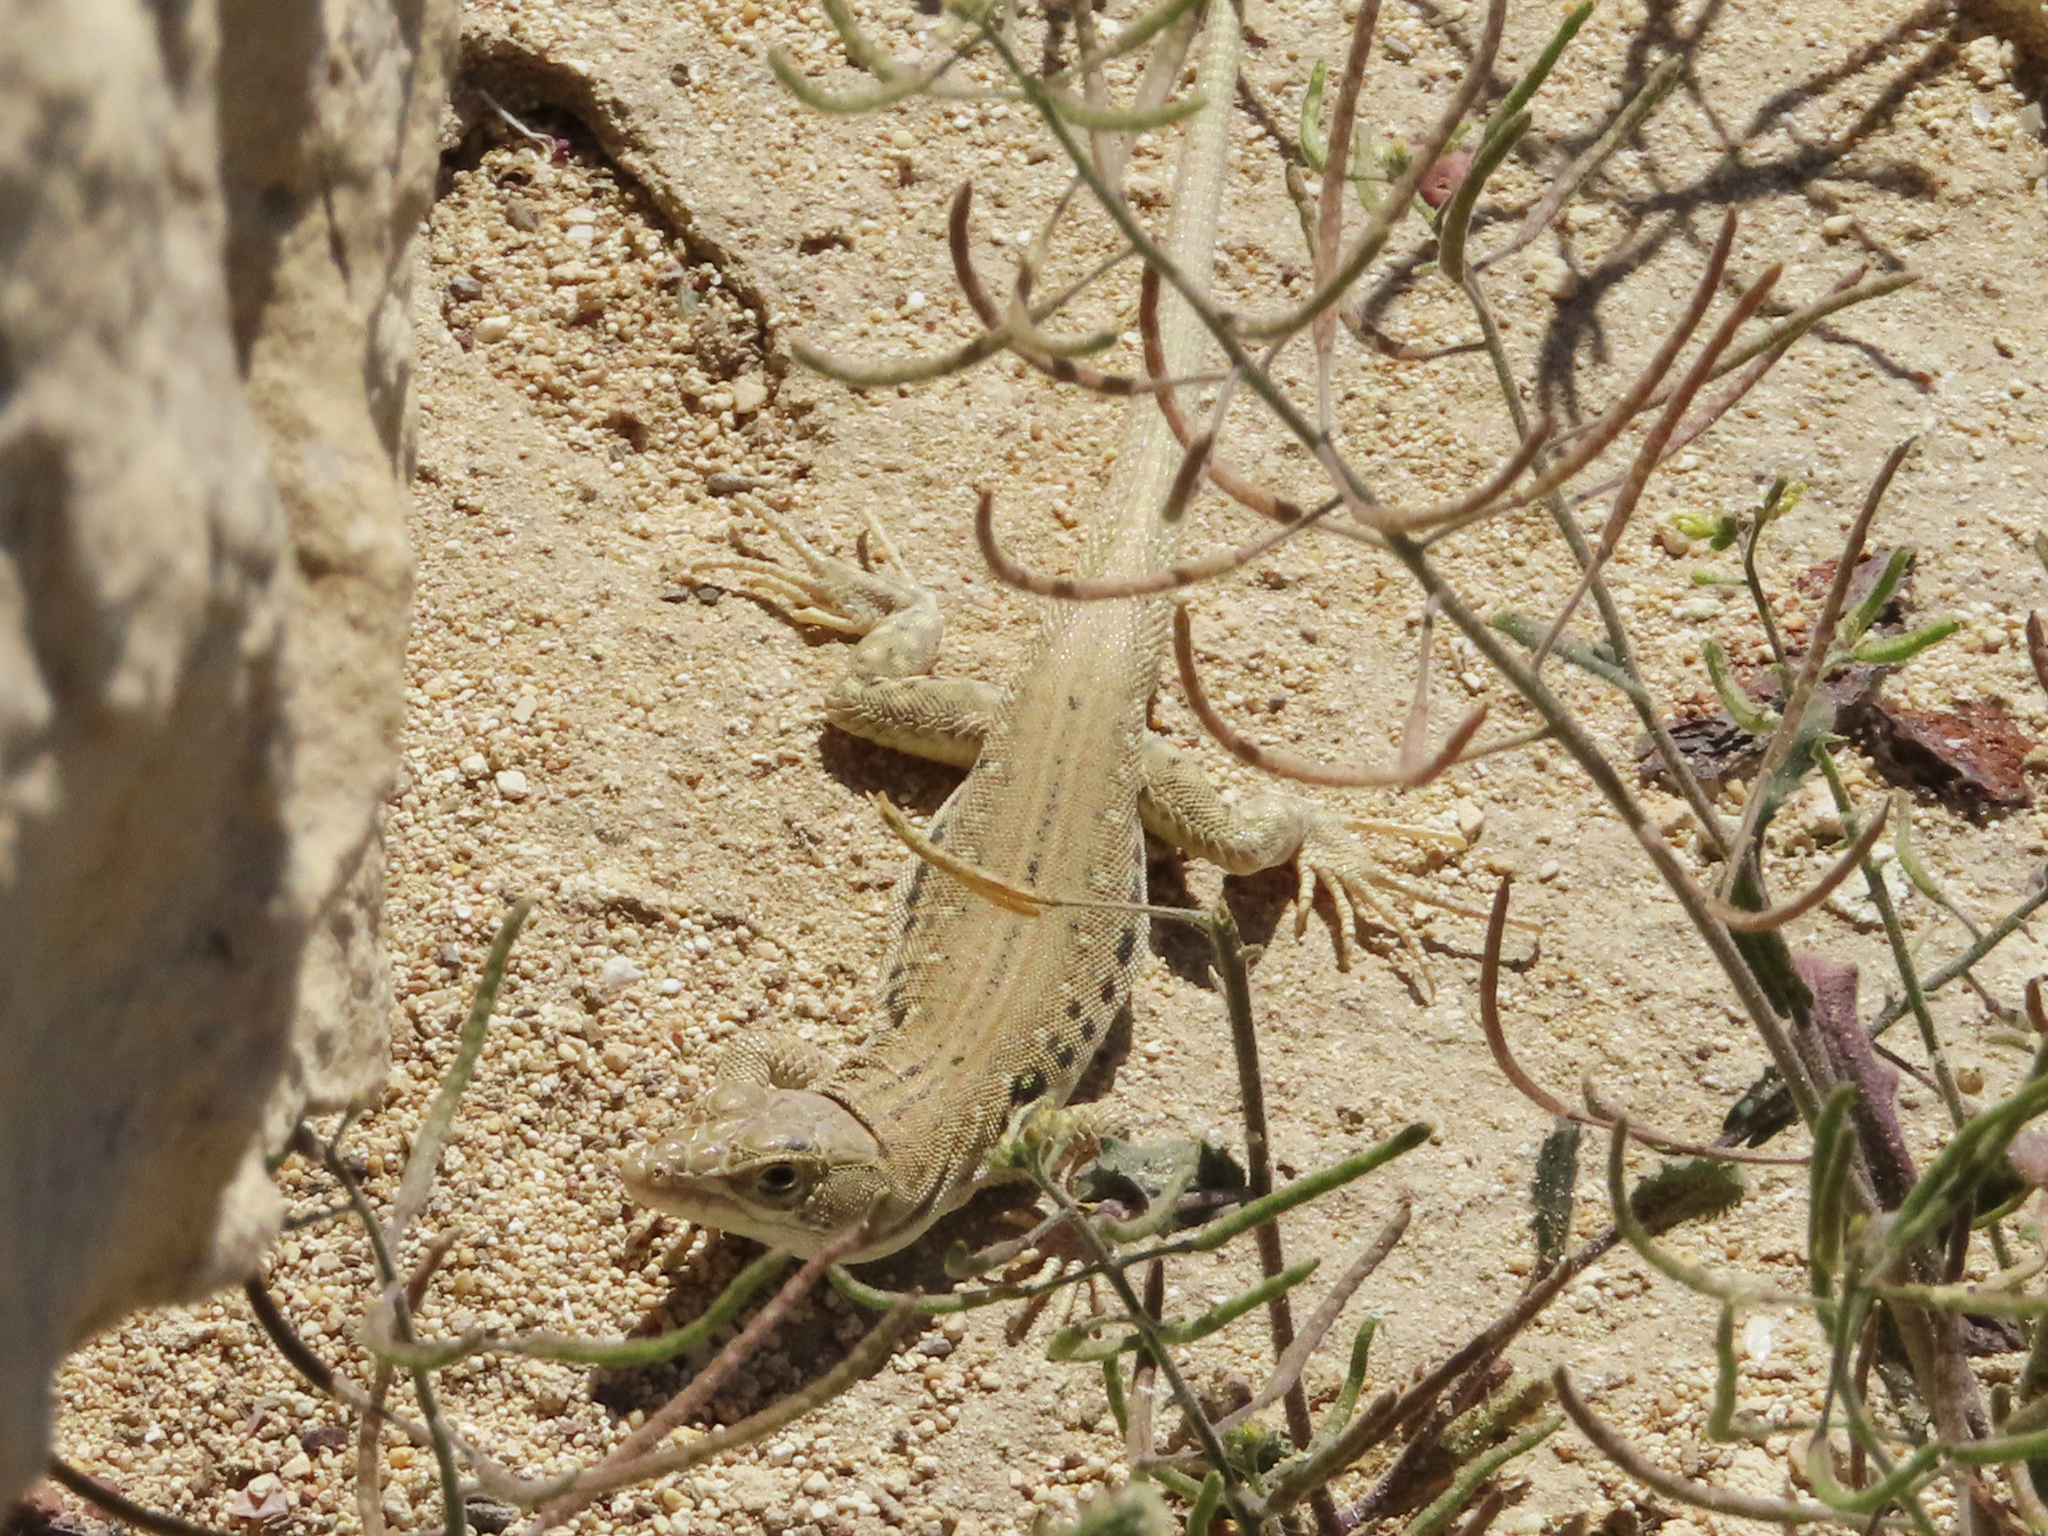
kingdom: Animalia
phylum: Chordata
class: Squamata
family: Lacertidae
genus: Eremias
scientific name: Eremias velox
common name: Central asian racerunner
